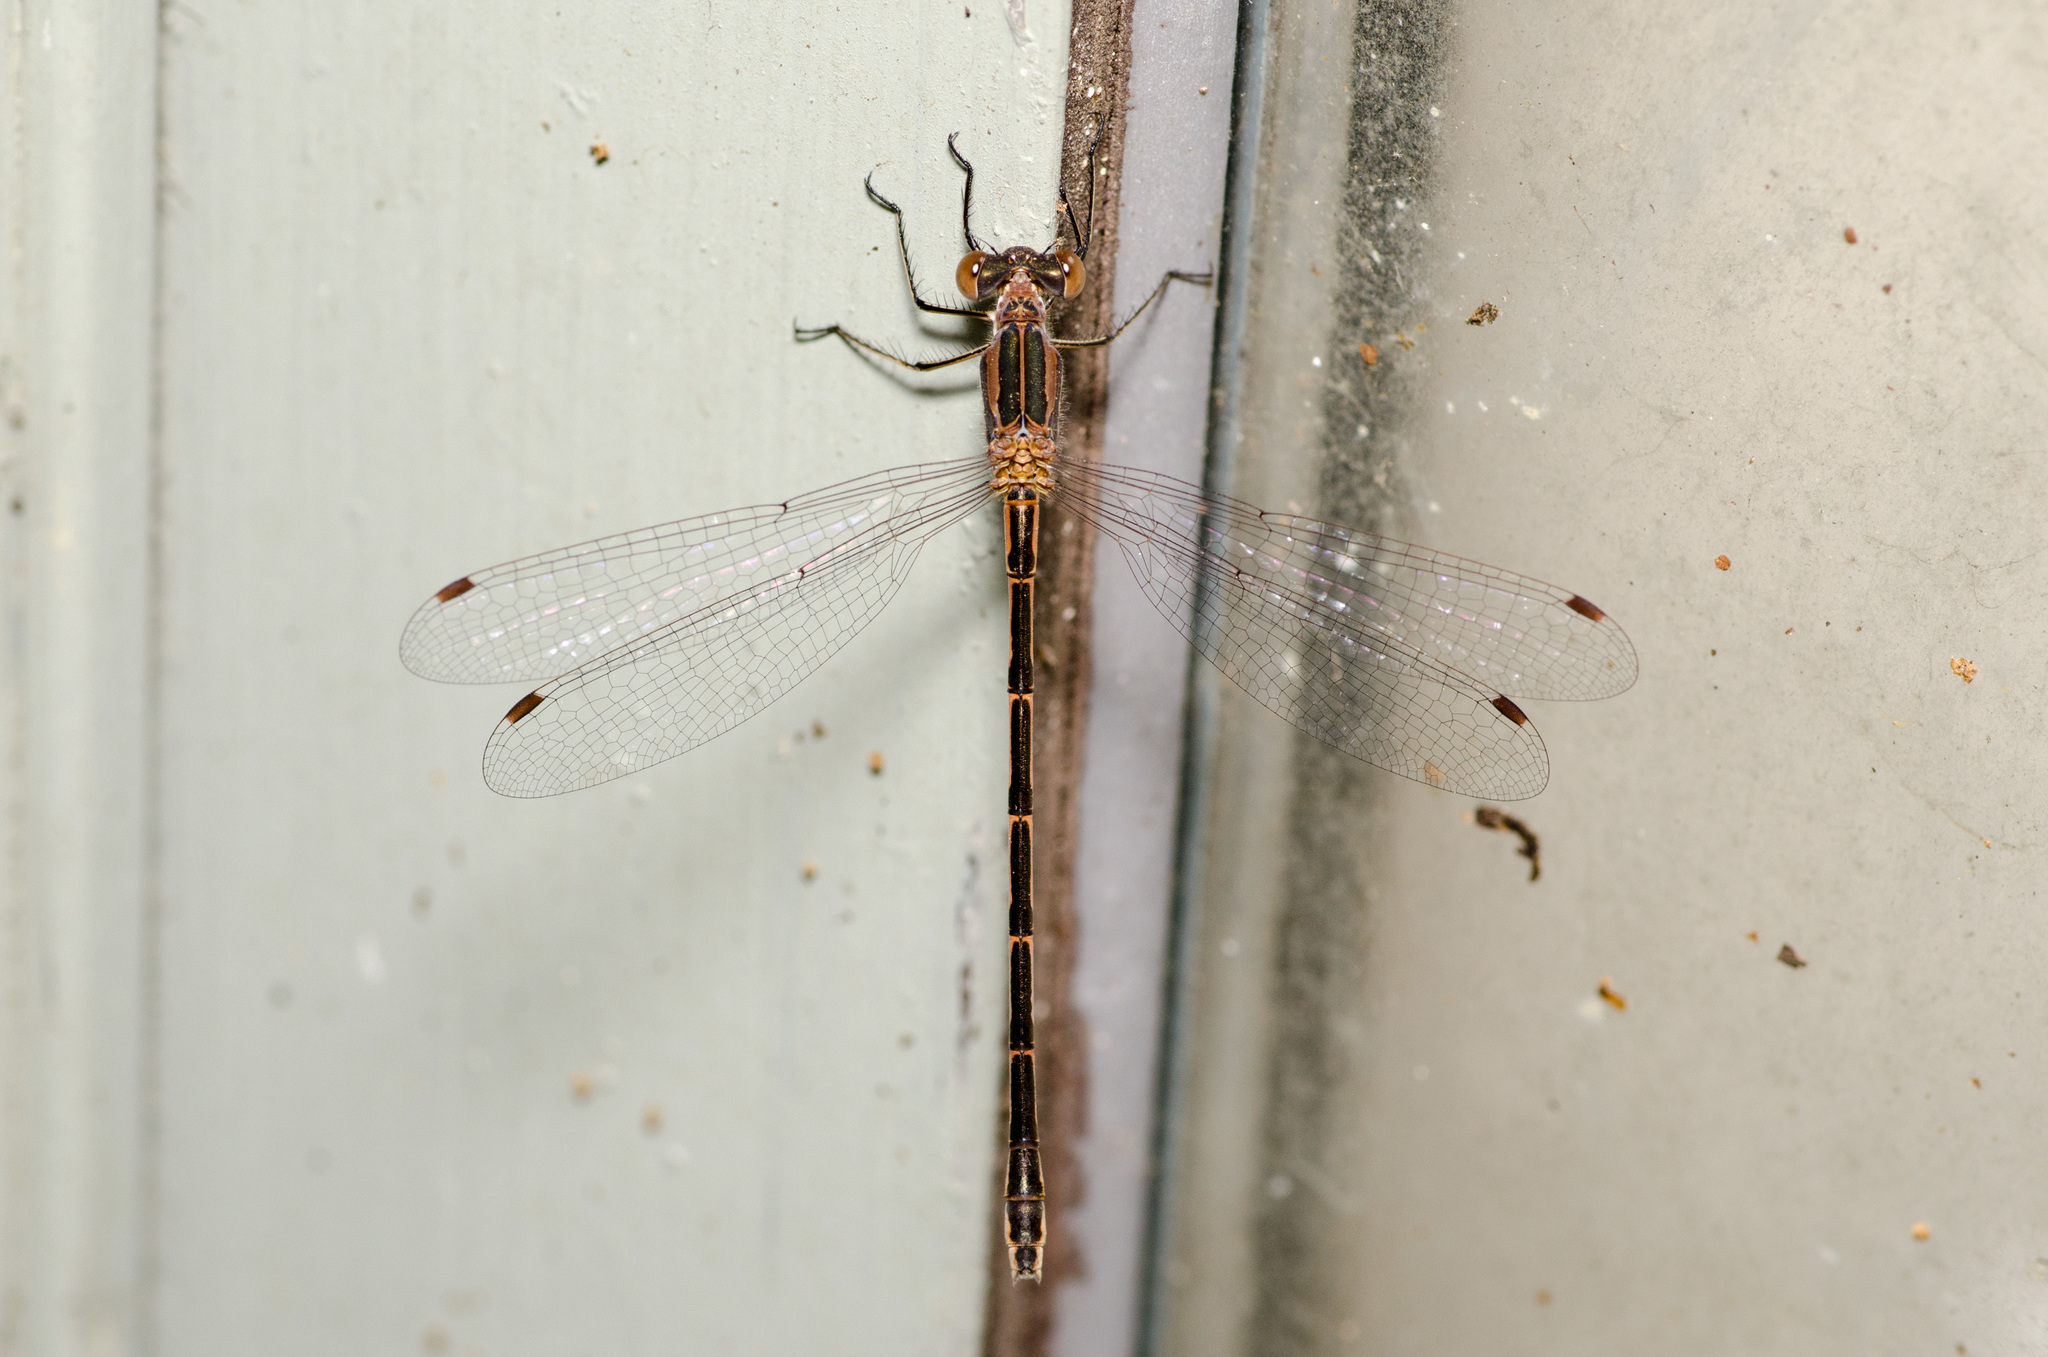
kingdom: Animalia
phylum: Arthropoda
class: Insecta
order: Odonata
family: Lestidae
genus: Lestes
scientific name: Lestes australis
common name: Southern spreadwing
